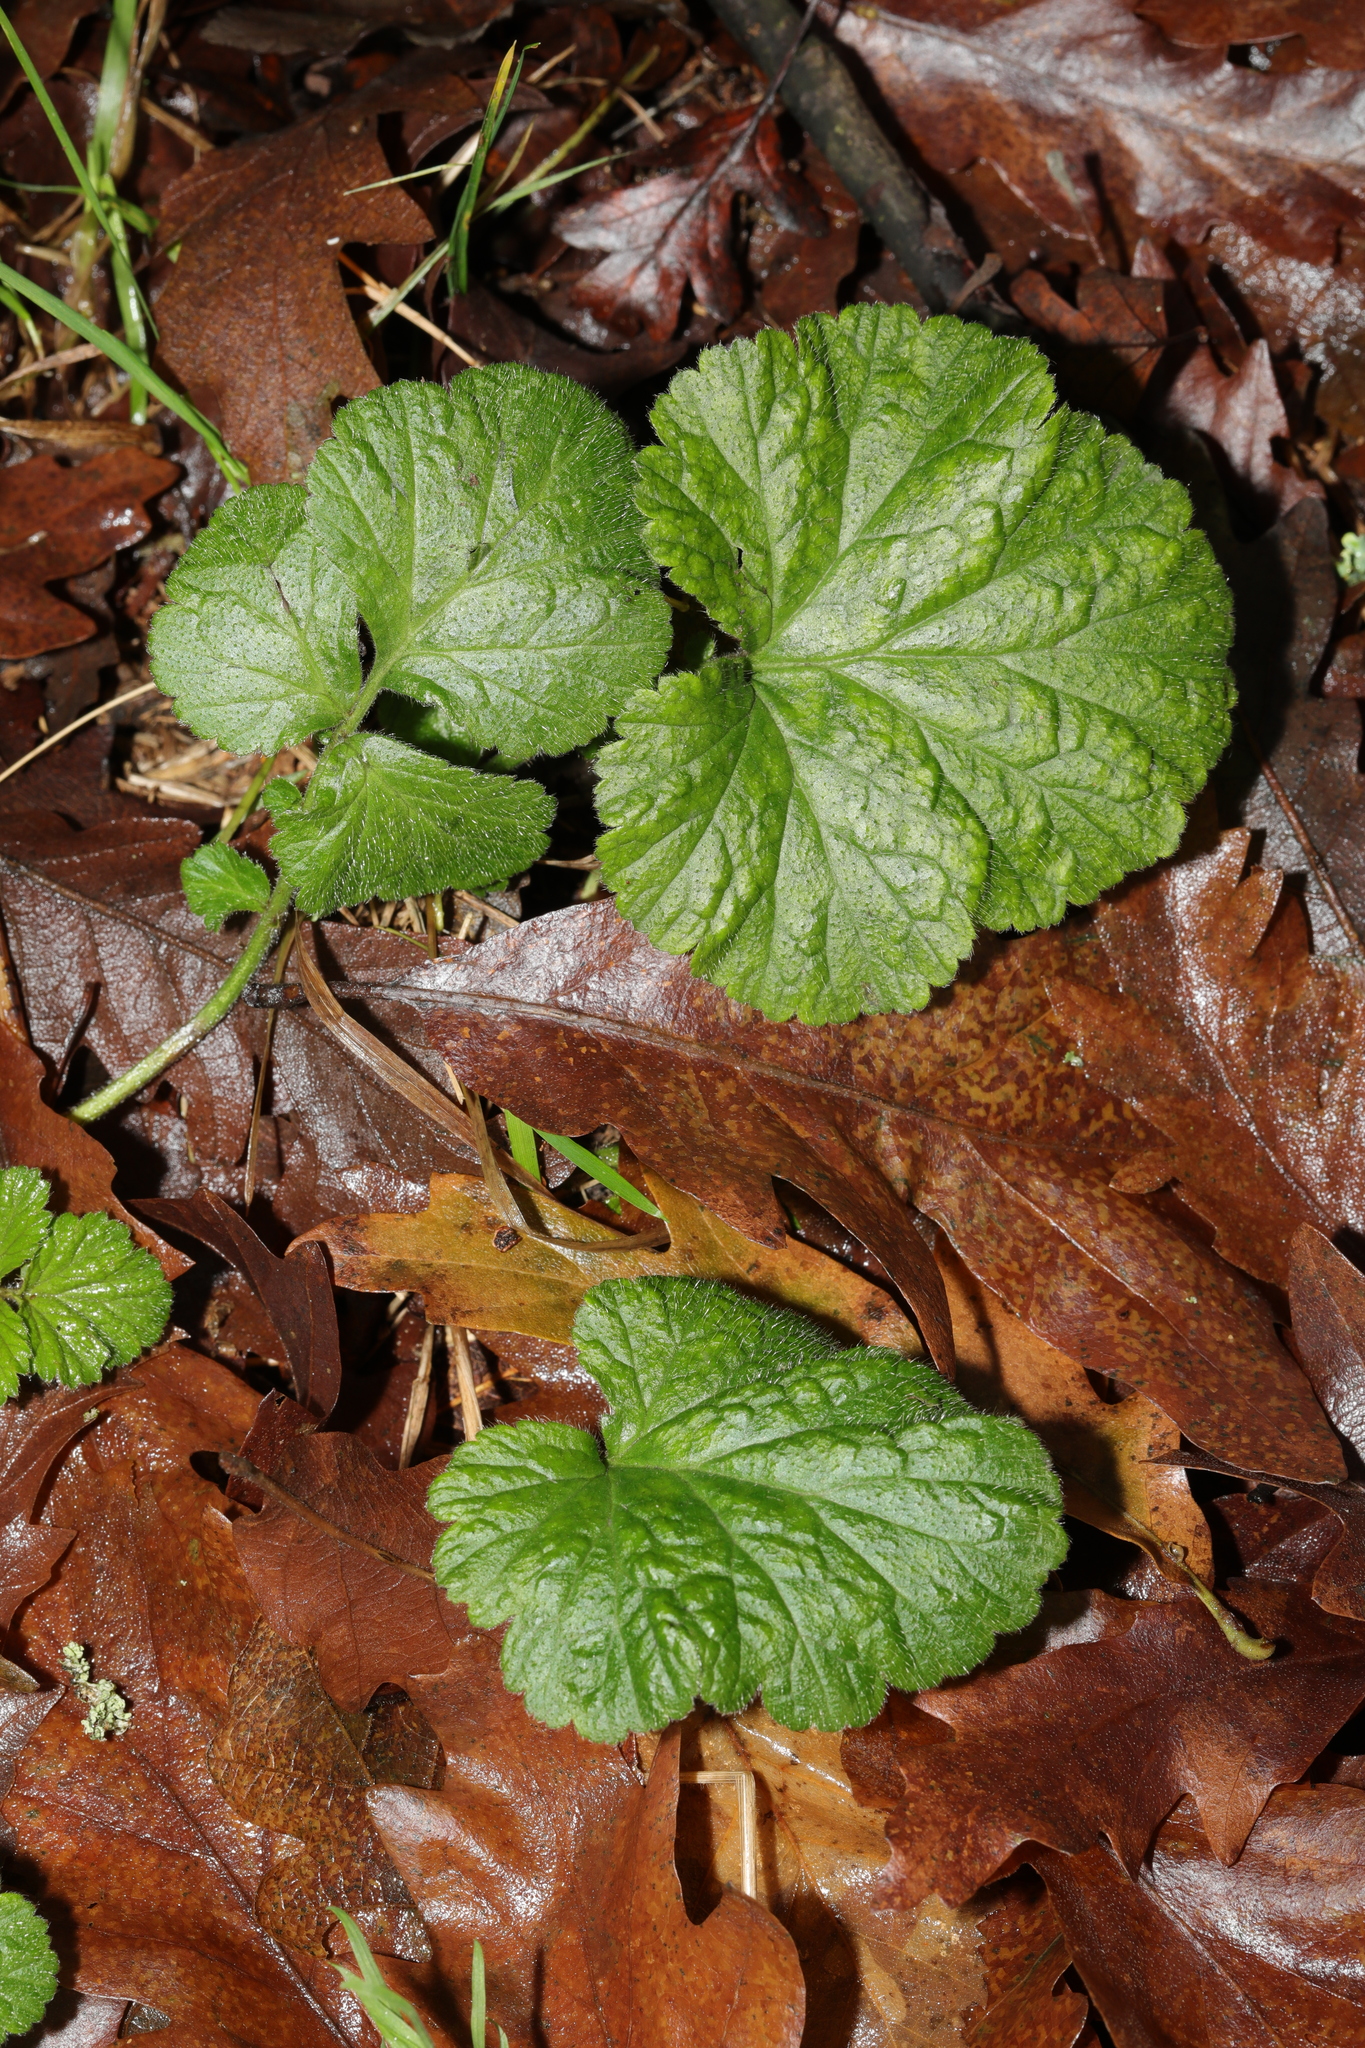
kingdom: Plantae
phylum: Tracheophyta
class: Magnoliopsida
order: Rosales
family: Rosaceae
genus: Geum
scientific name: Geum urbanum
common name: Wood avens
